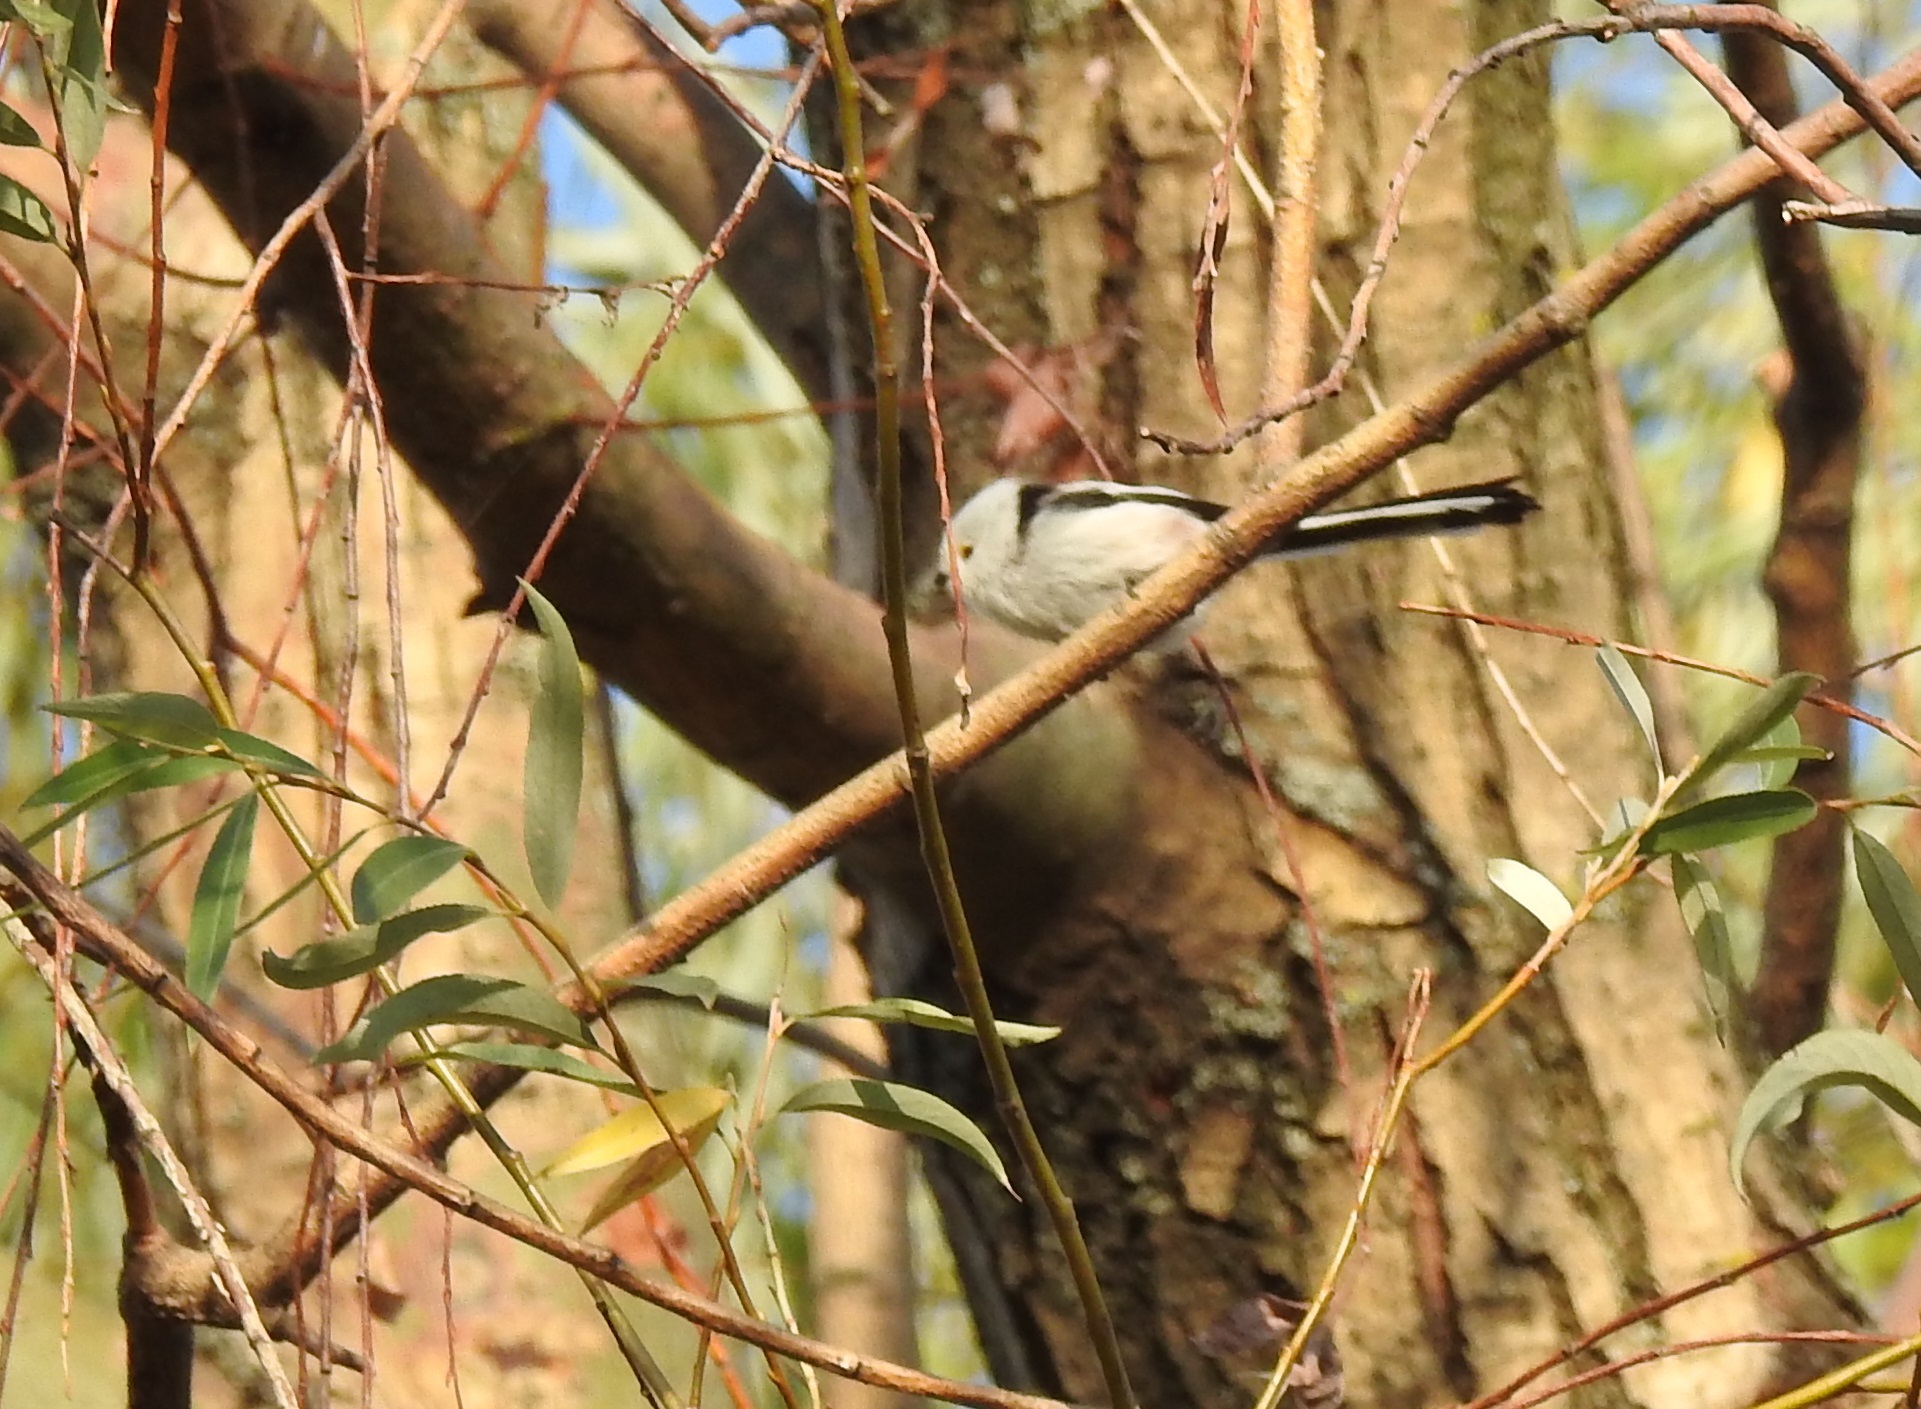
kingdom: Animalia
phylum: Chordata
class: Aves
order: Passeriformes
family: Aegithalidae
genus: Aegithalos
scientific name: Aegithalos caudatus
